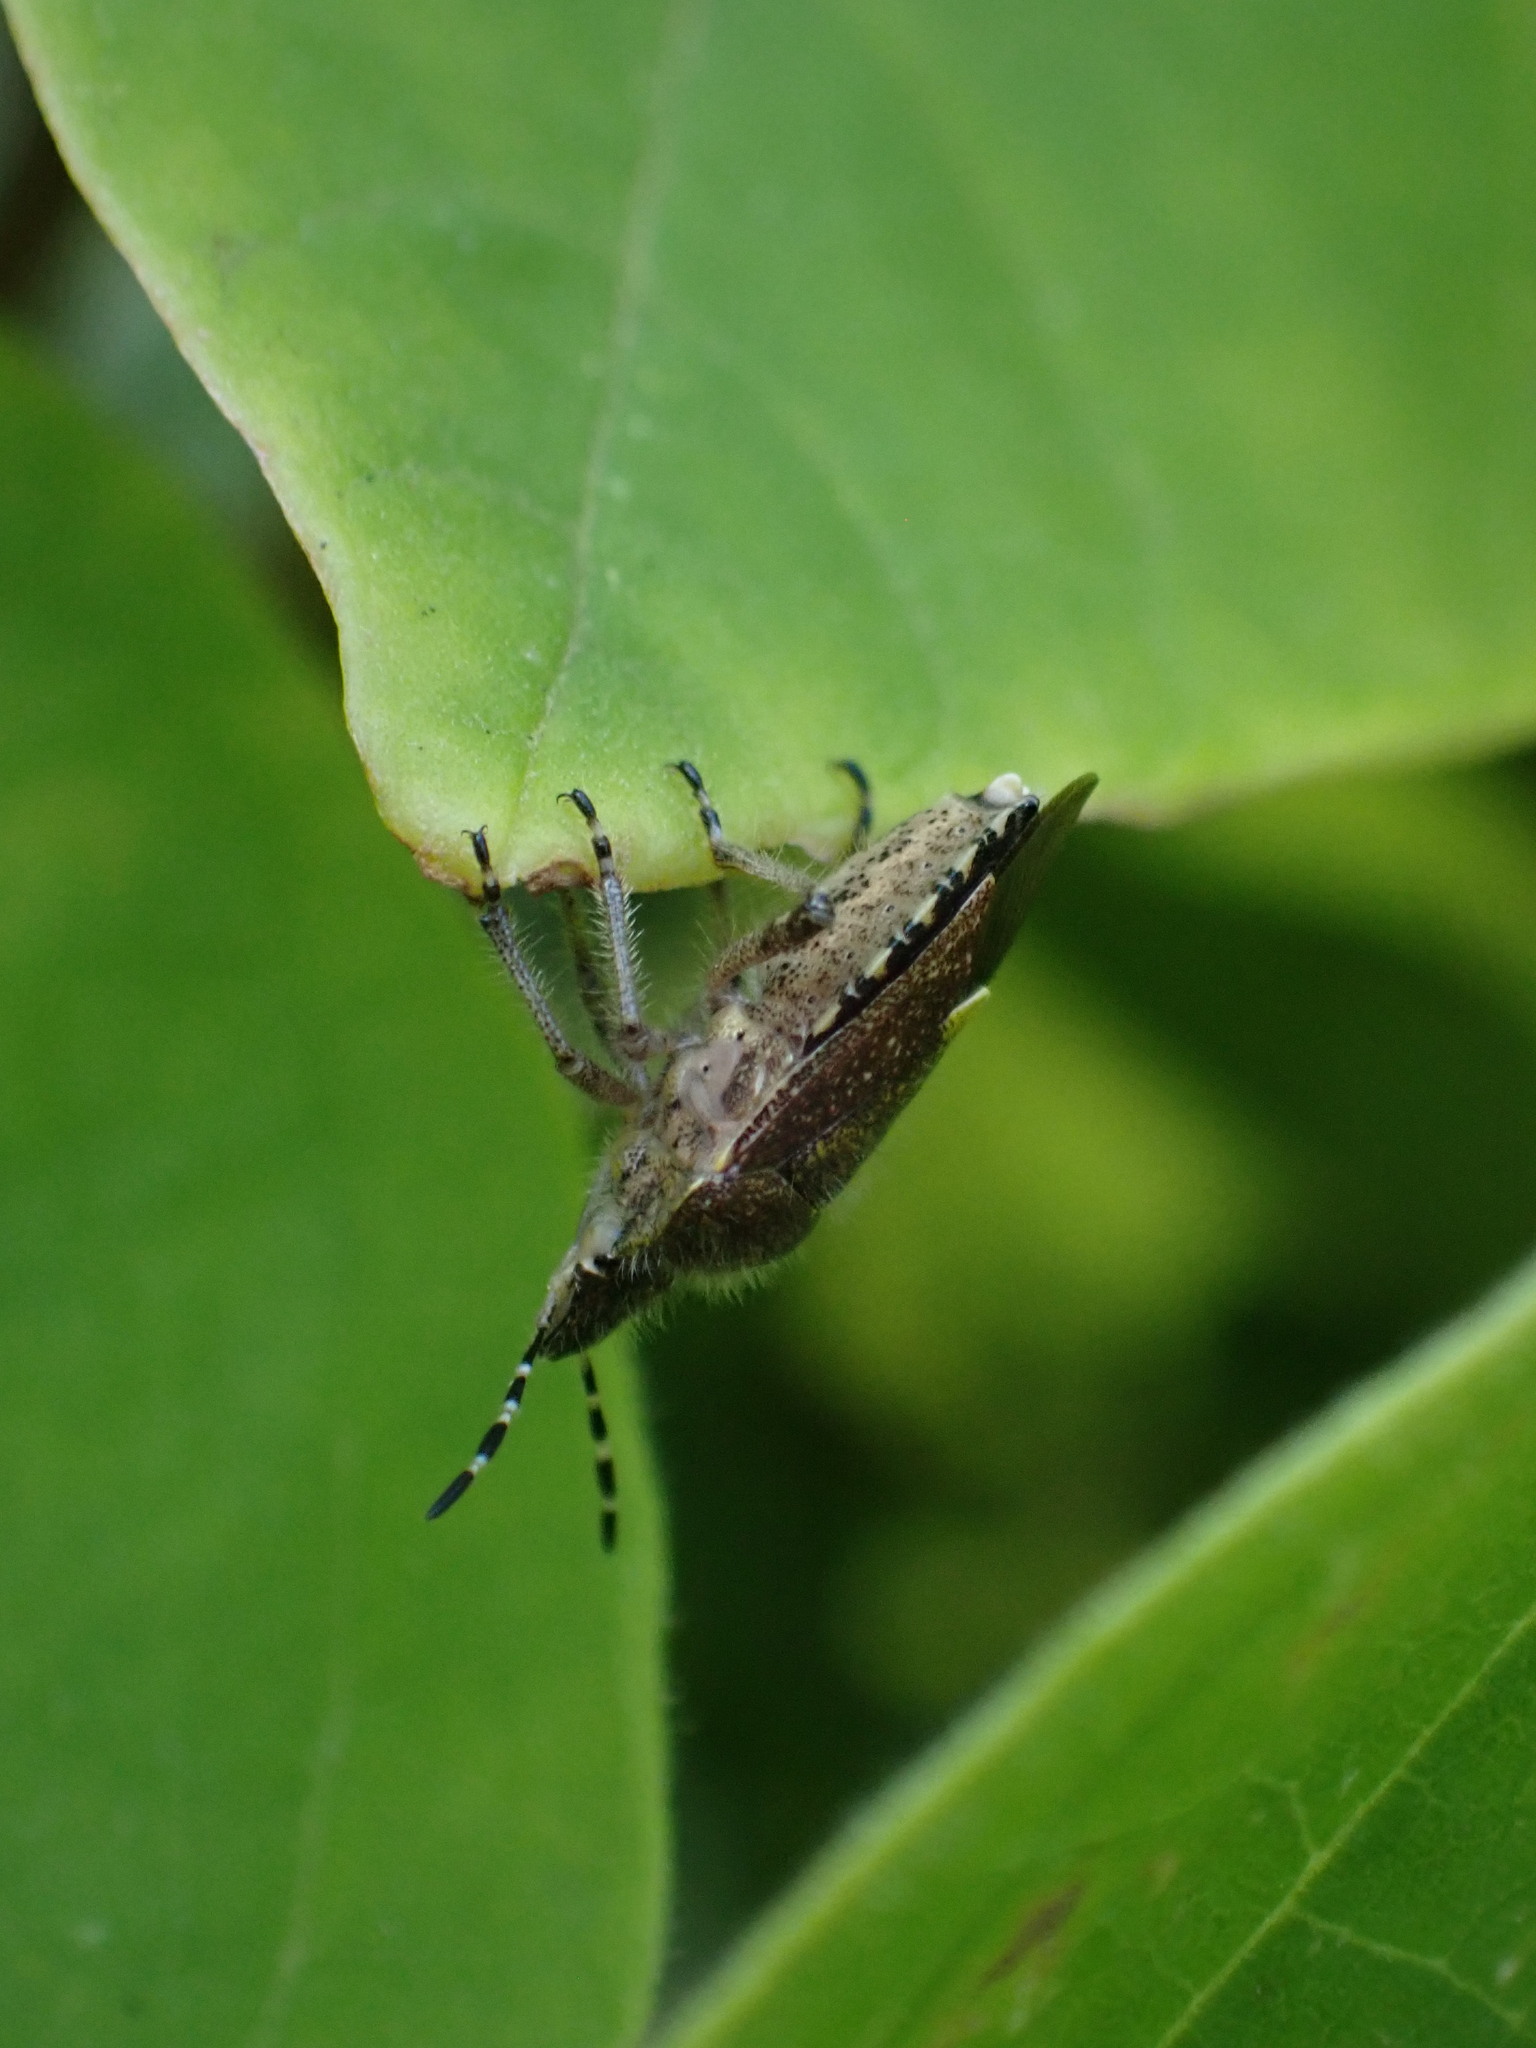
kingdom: Animalia
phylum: Arthropoda
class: Insecta
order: Hemiptera
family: Pentatomidae
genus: Dolycoris
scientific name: Dolycoris baccarum
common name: Sloe bug
